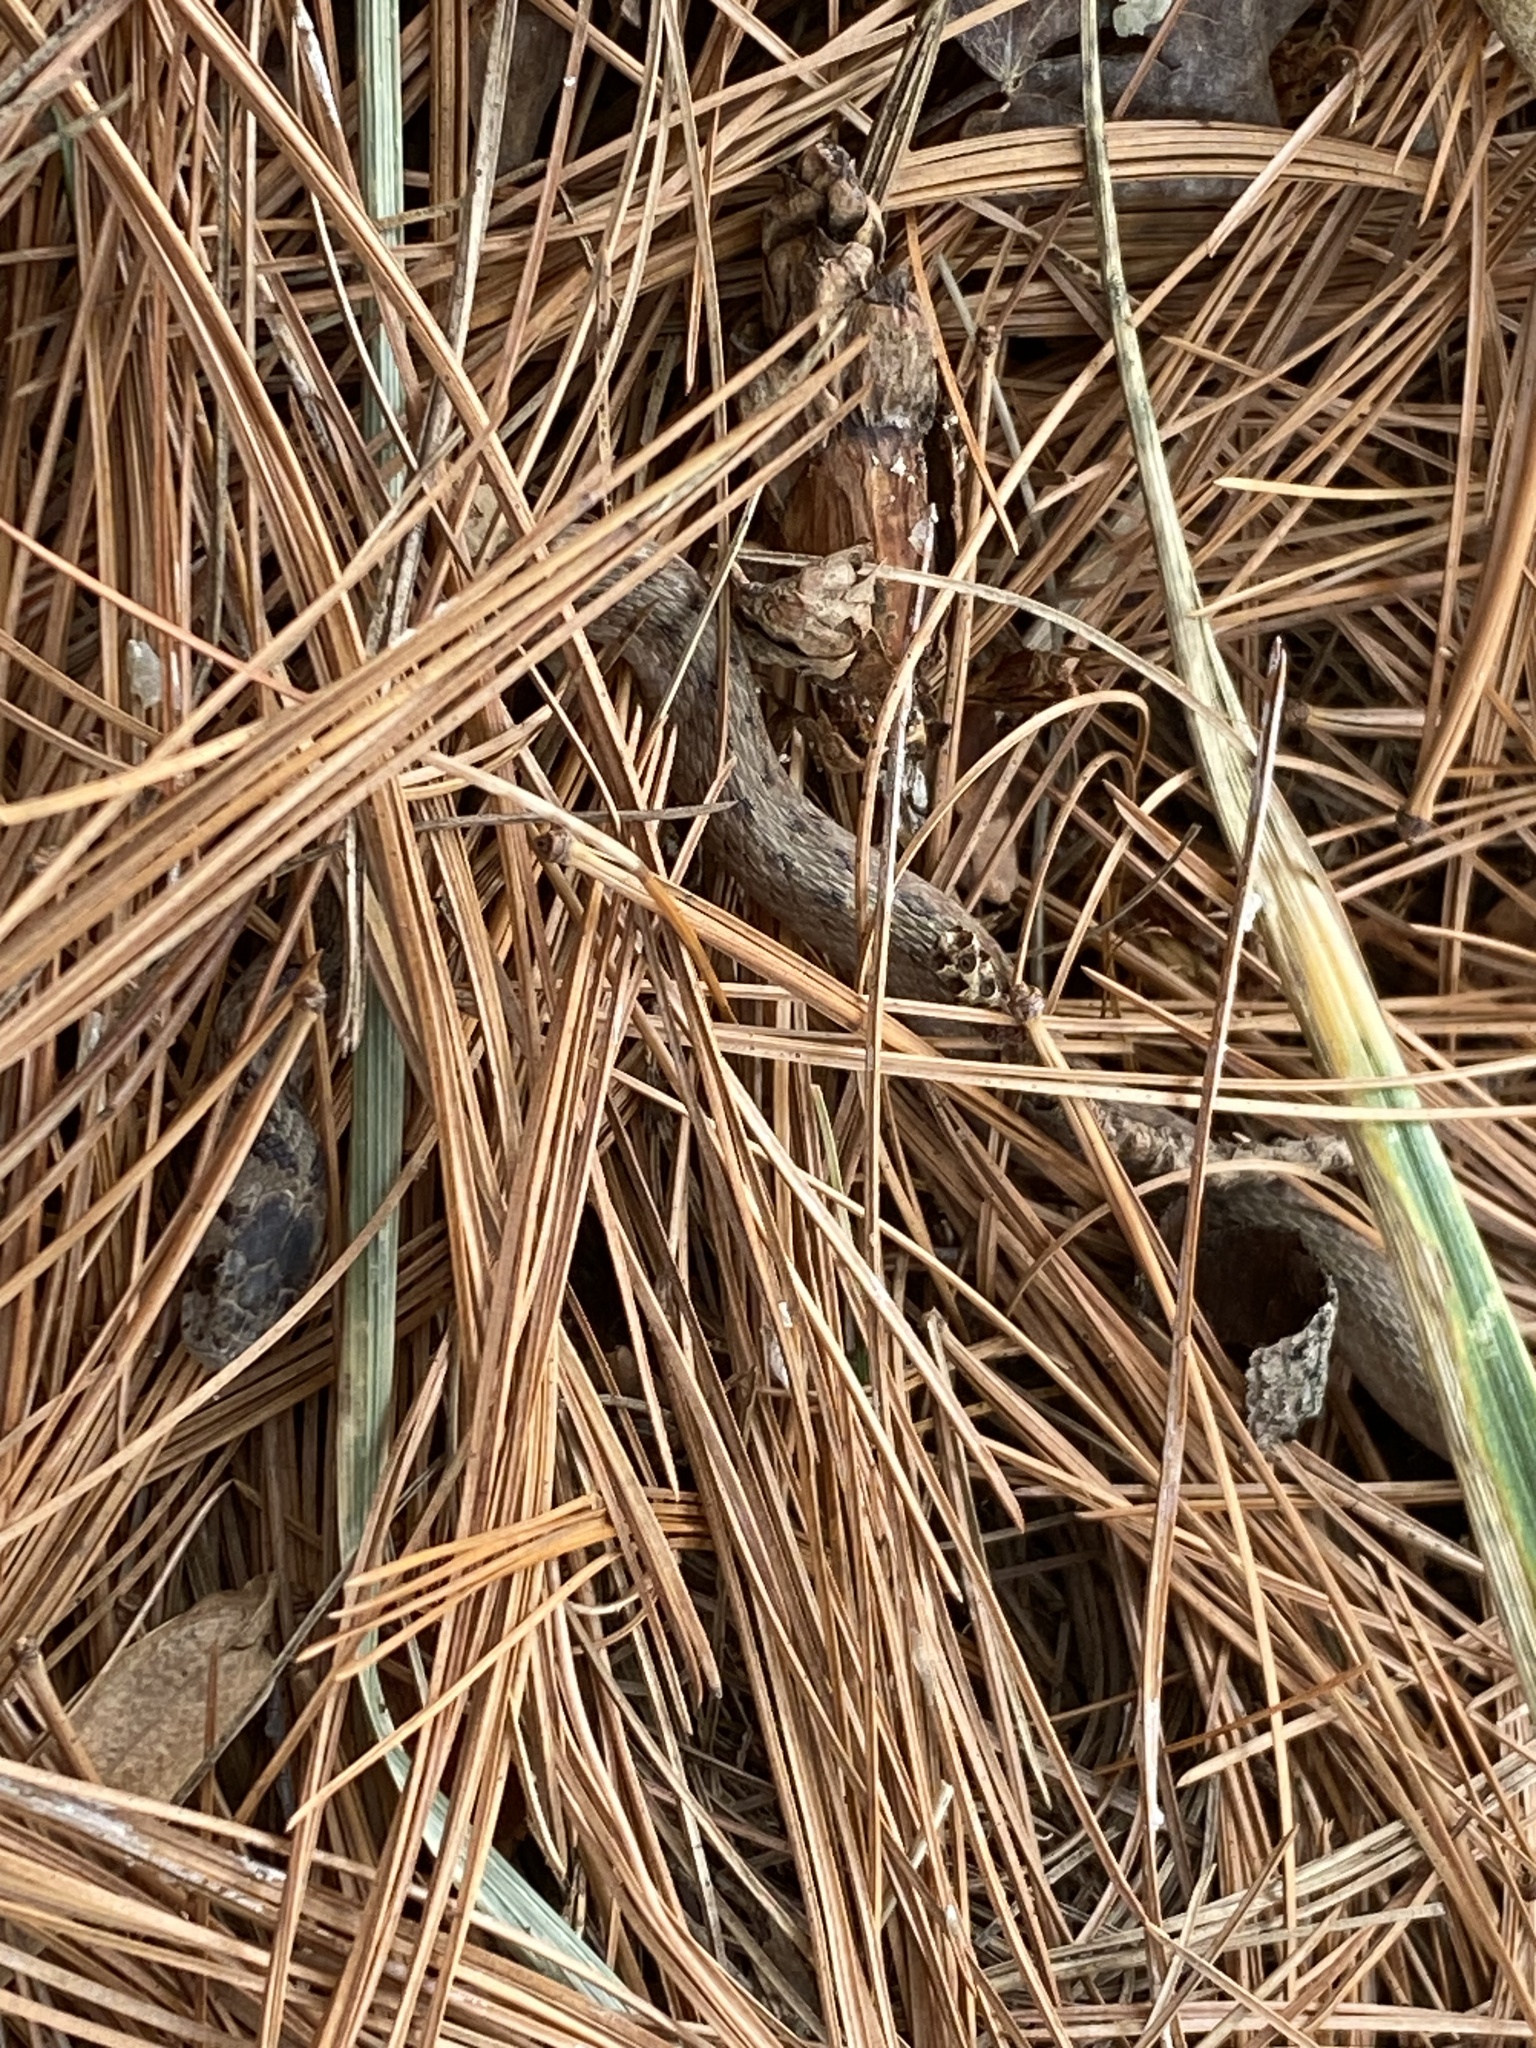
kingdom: Animalia
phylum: Chordata
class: Squamata
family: Colubridae
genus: Storeria
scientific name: Storeria dekayi
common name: (dekay’s) brown snake
